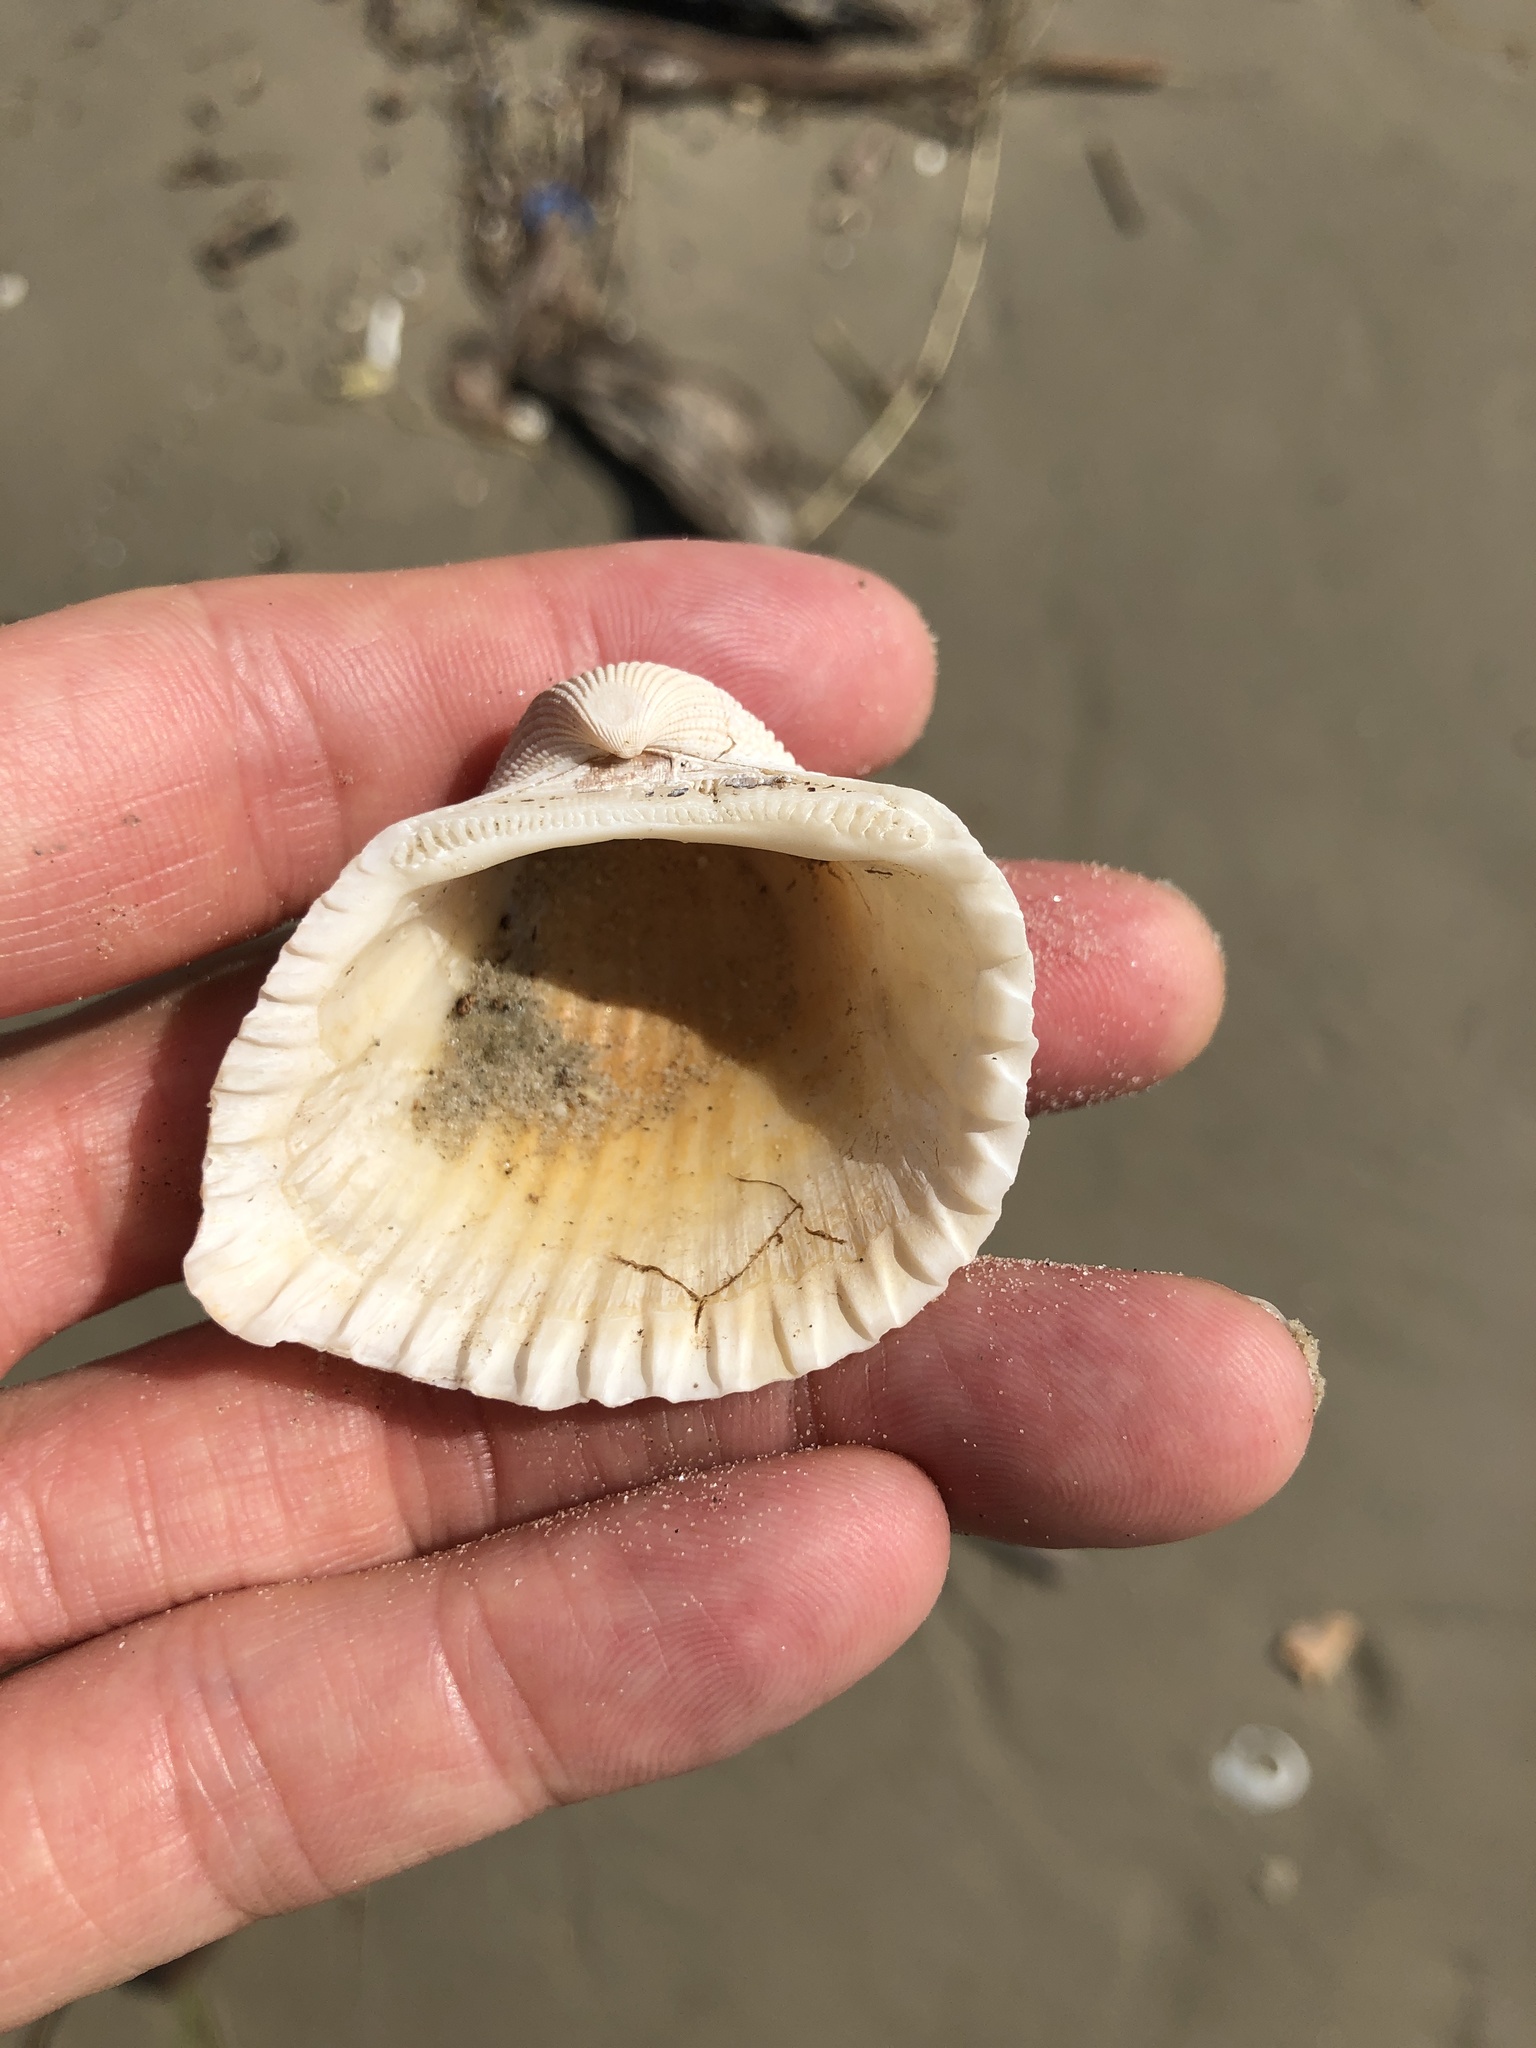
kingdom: Animalia
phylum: Mollusca
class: Bivalvia
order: Arcida
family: Arcidae
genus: Anadara
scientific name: Anadara brasiliana
